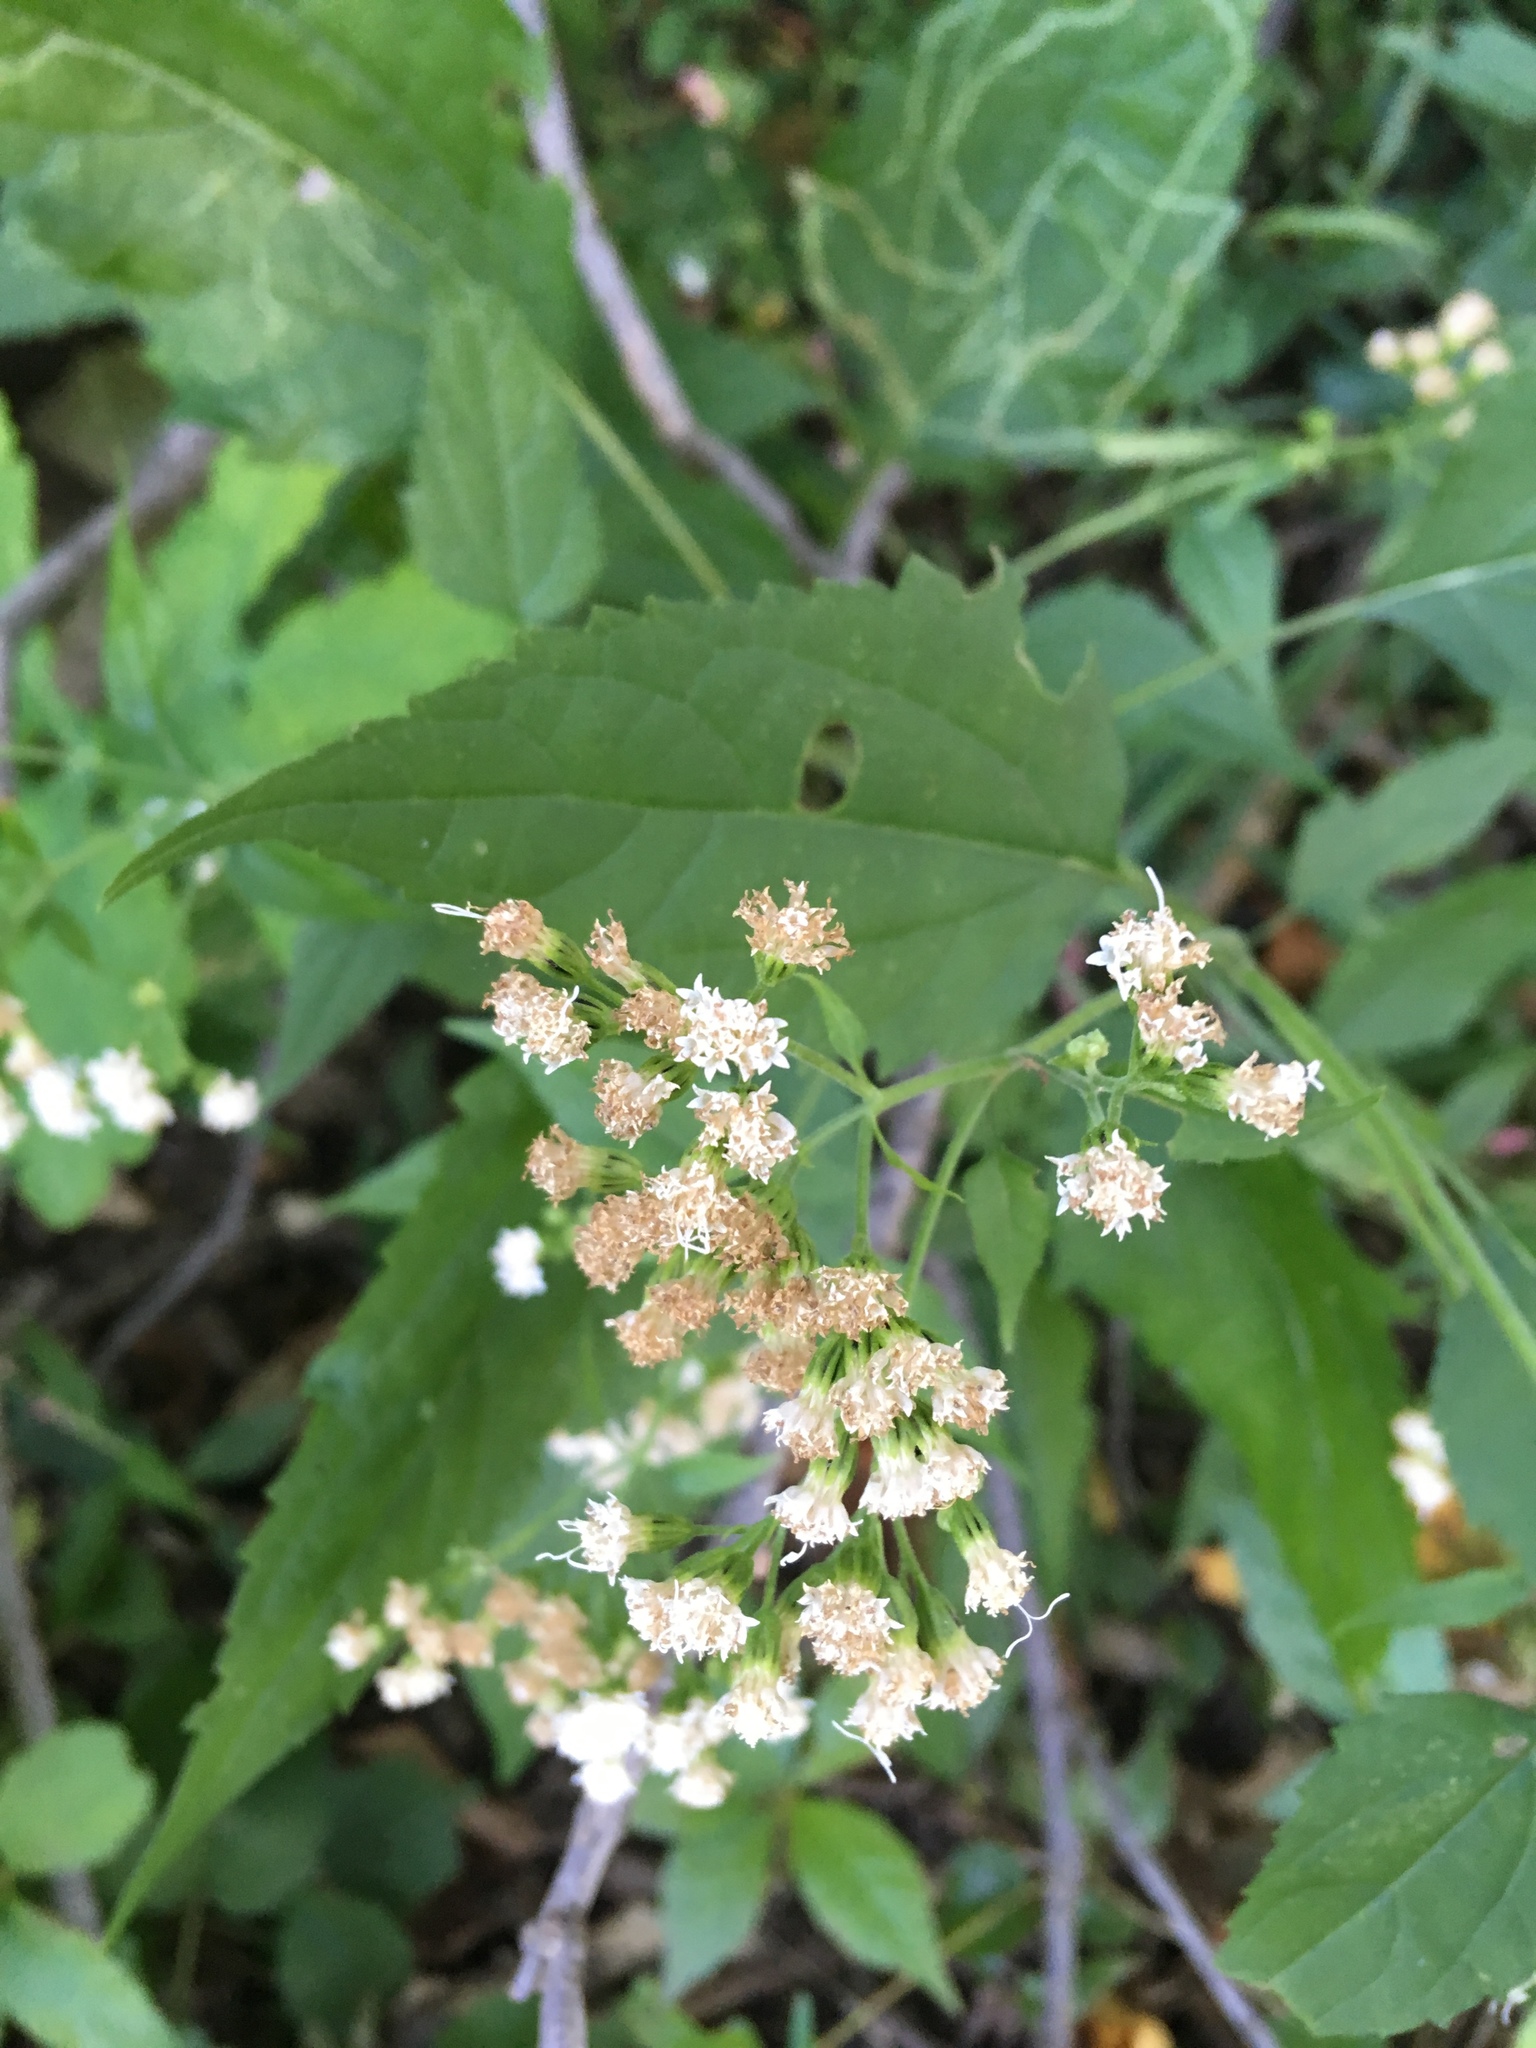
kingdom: Plantae
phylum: Tracheophyta
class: Magnoliopsida
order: Asterales
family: Asteraceae
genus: Ageratina
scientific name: Ageratina altissima
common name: White snakeroot
